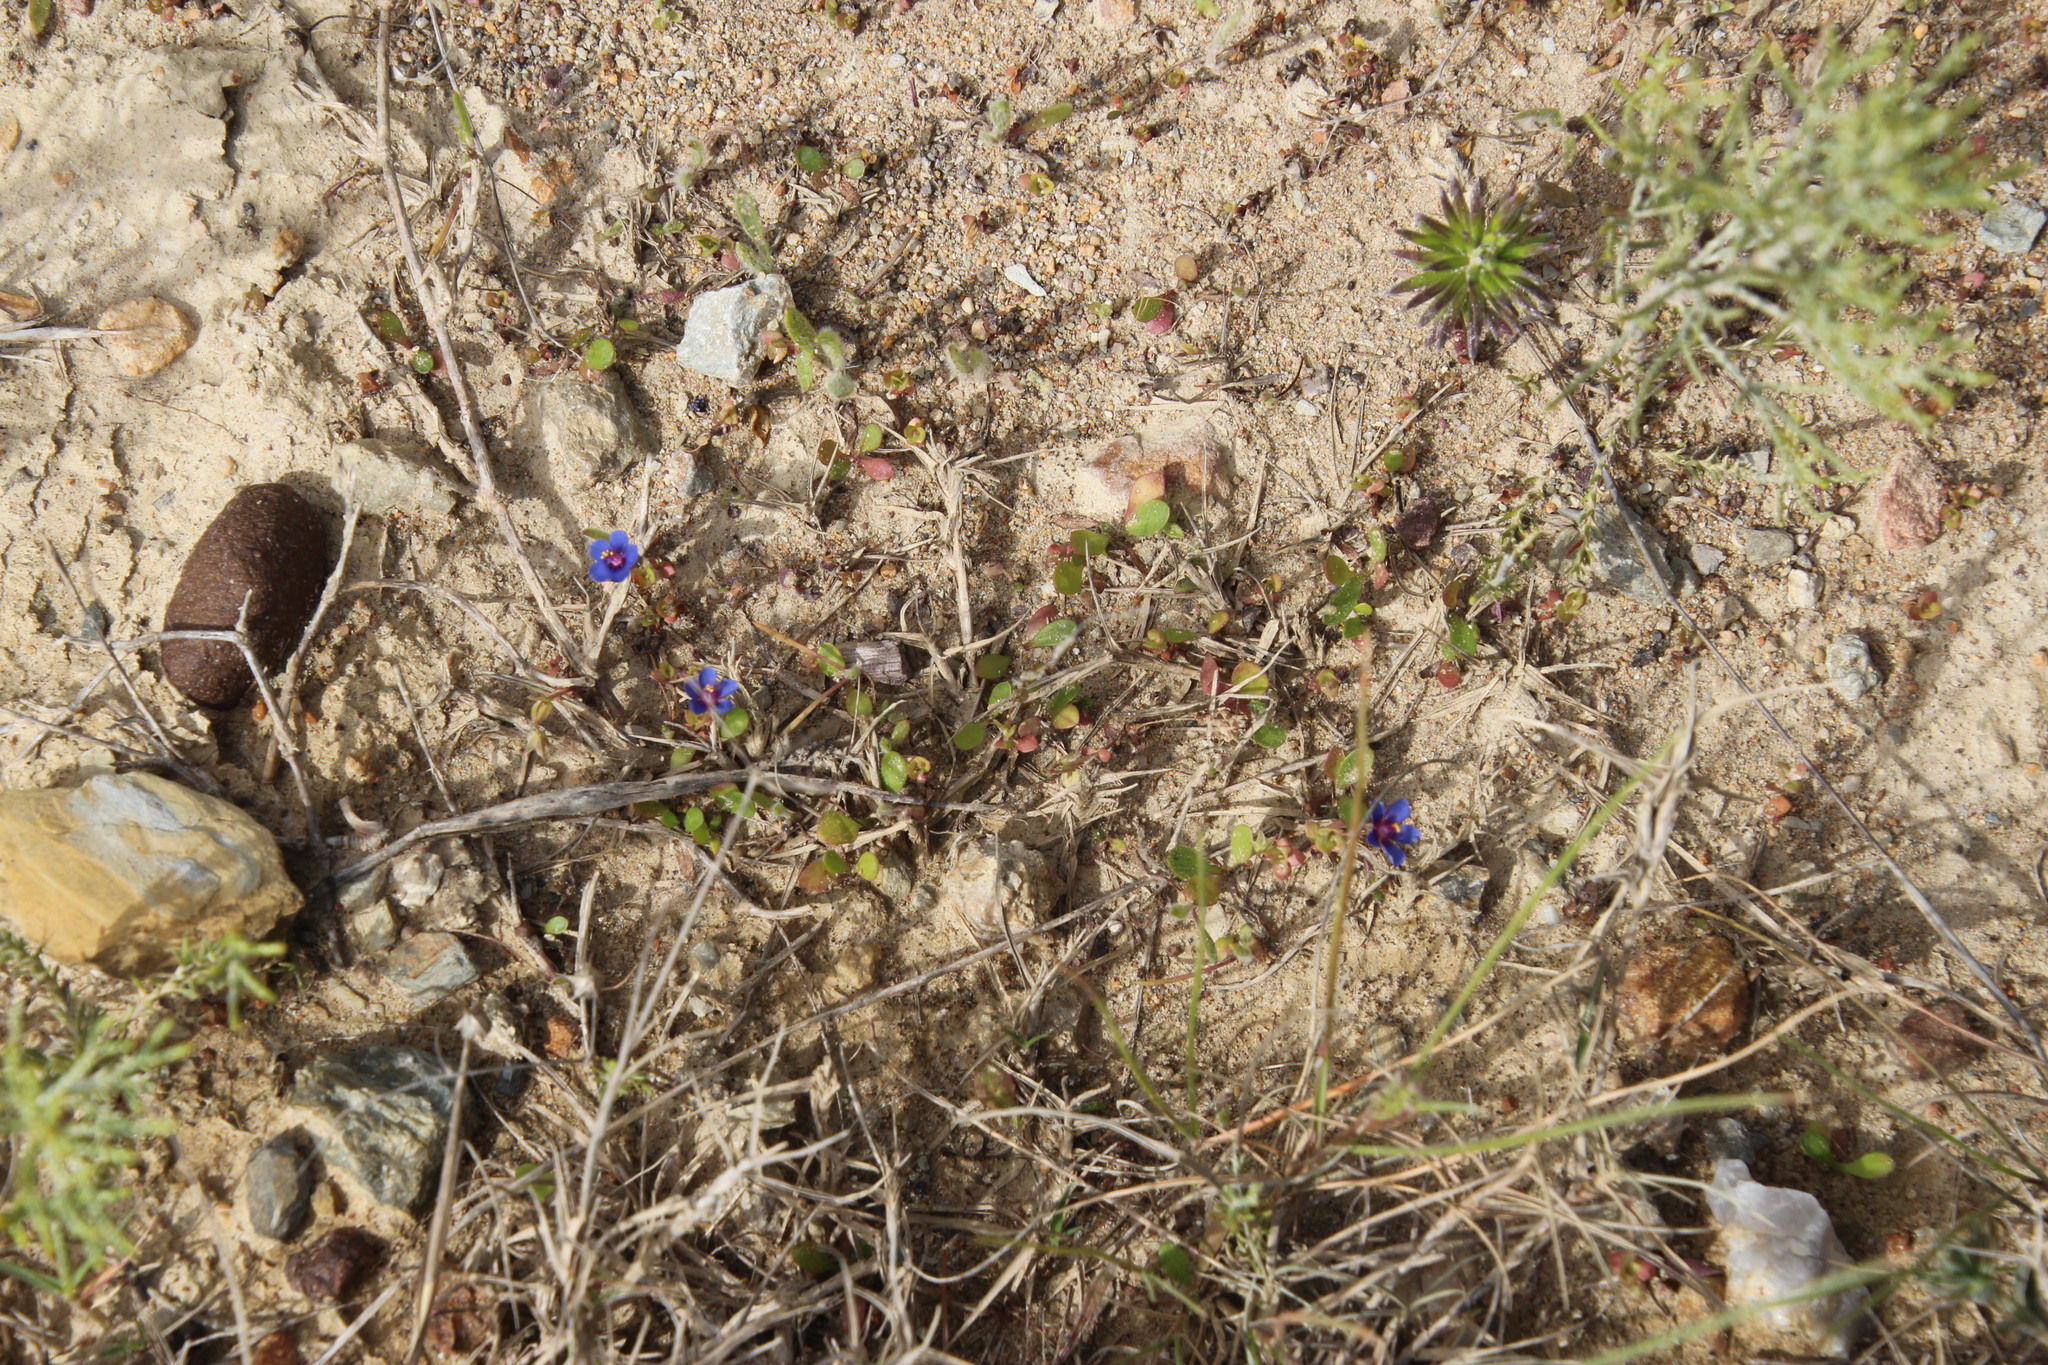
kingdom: Plantae
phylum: Tracheophyta
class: Magnoliopsida
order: Ericales
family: Primulaceae
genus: Lysimachia
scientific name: Lysimachia loeflingii
